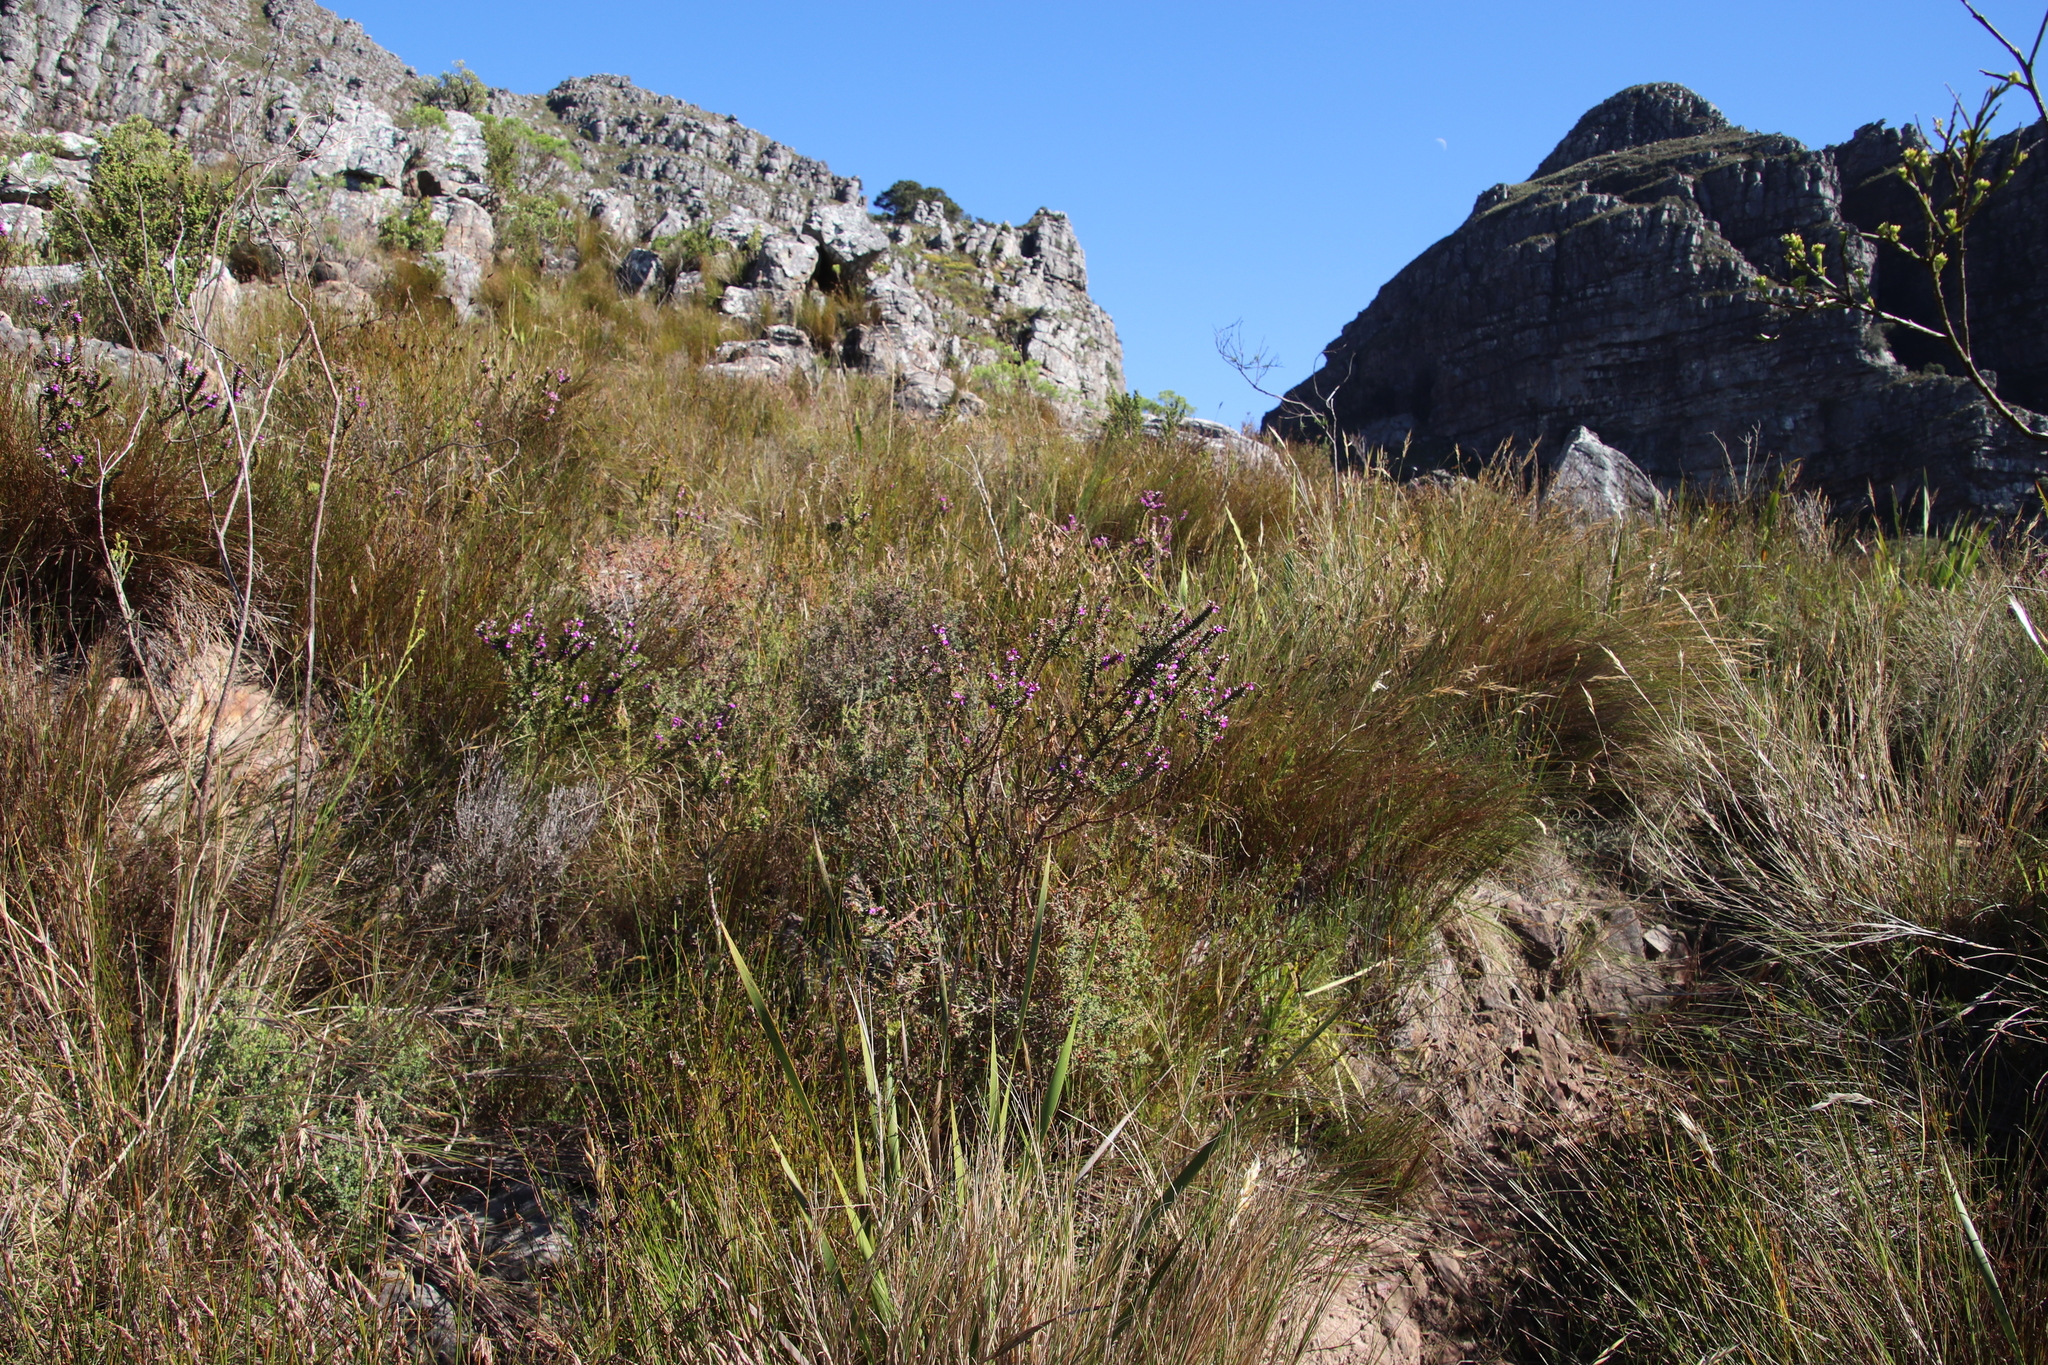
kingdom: Plantae
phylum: Tracheophyta
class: Magnoliopsida
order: Fabales
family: Polygalaceae
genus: Muraltia
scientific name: Muraltia heisteria
